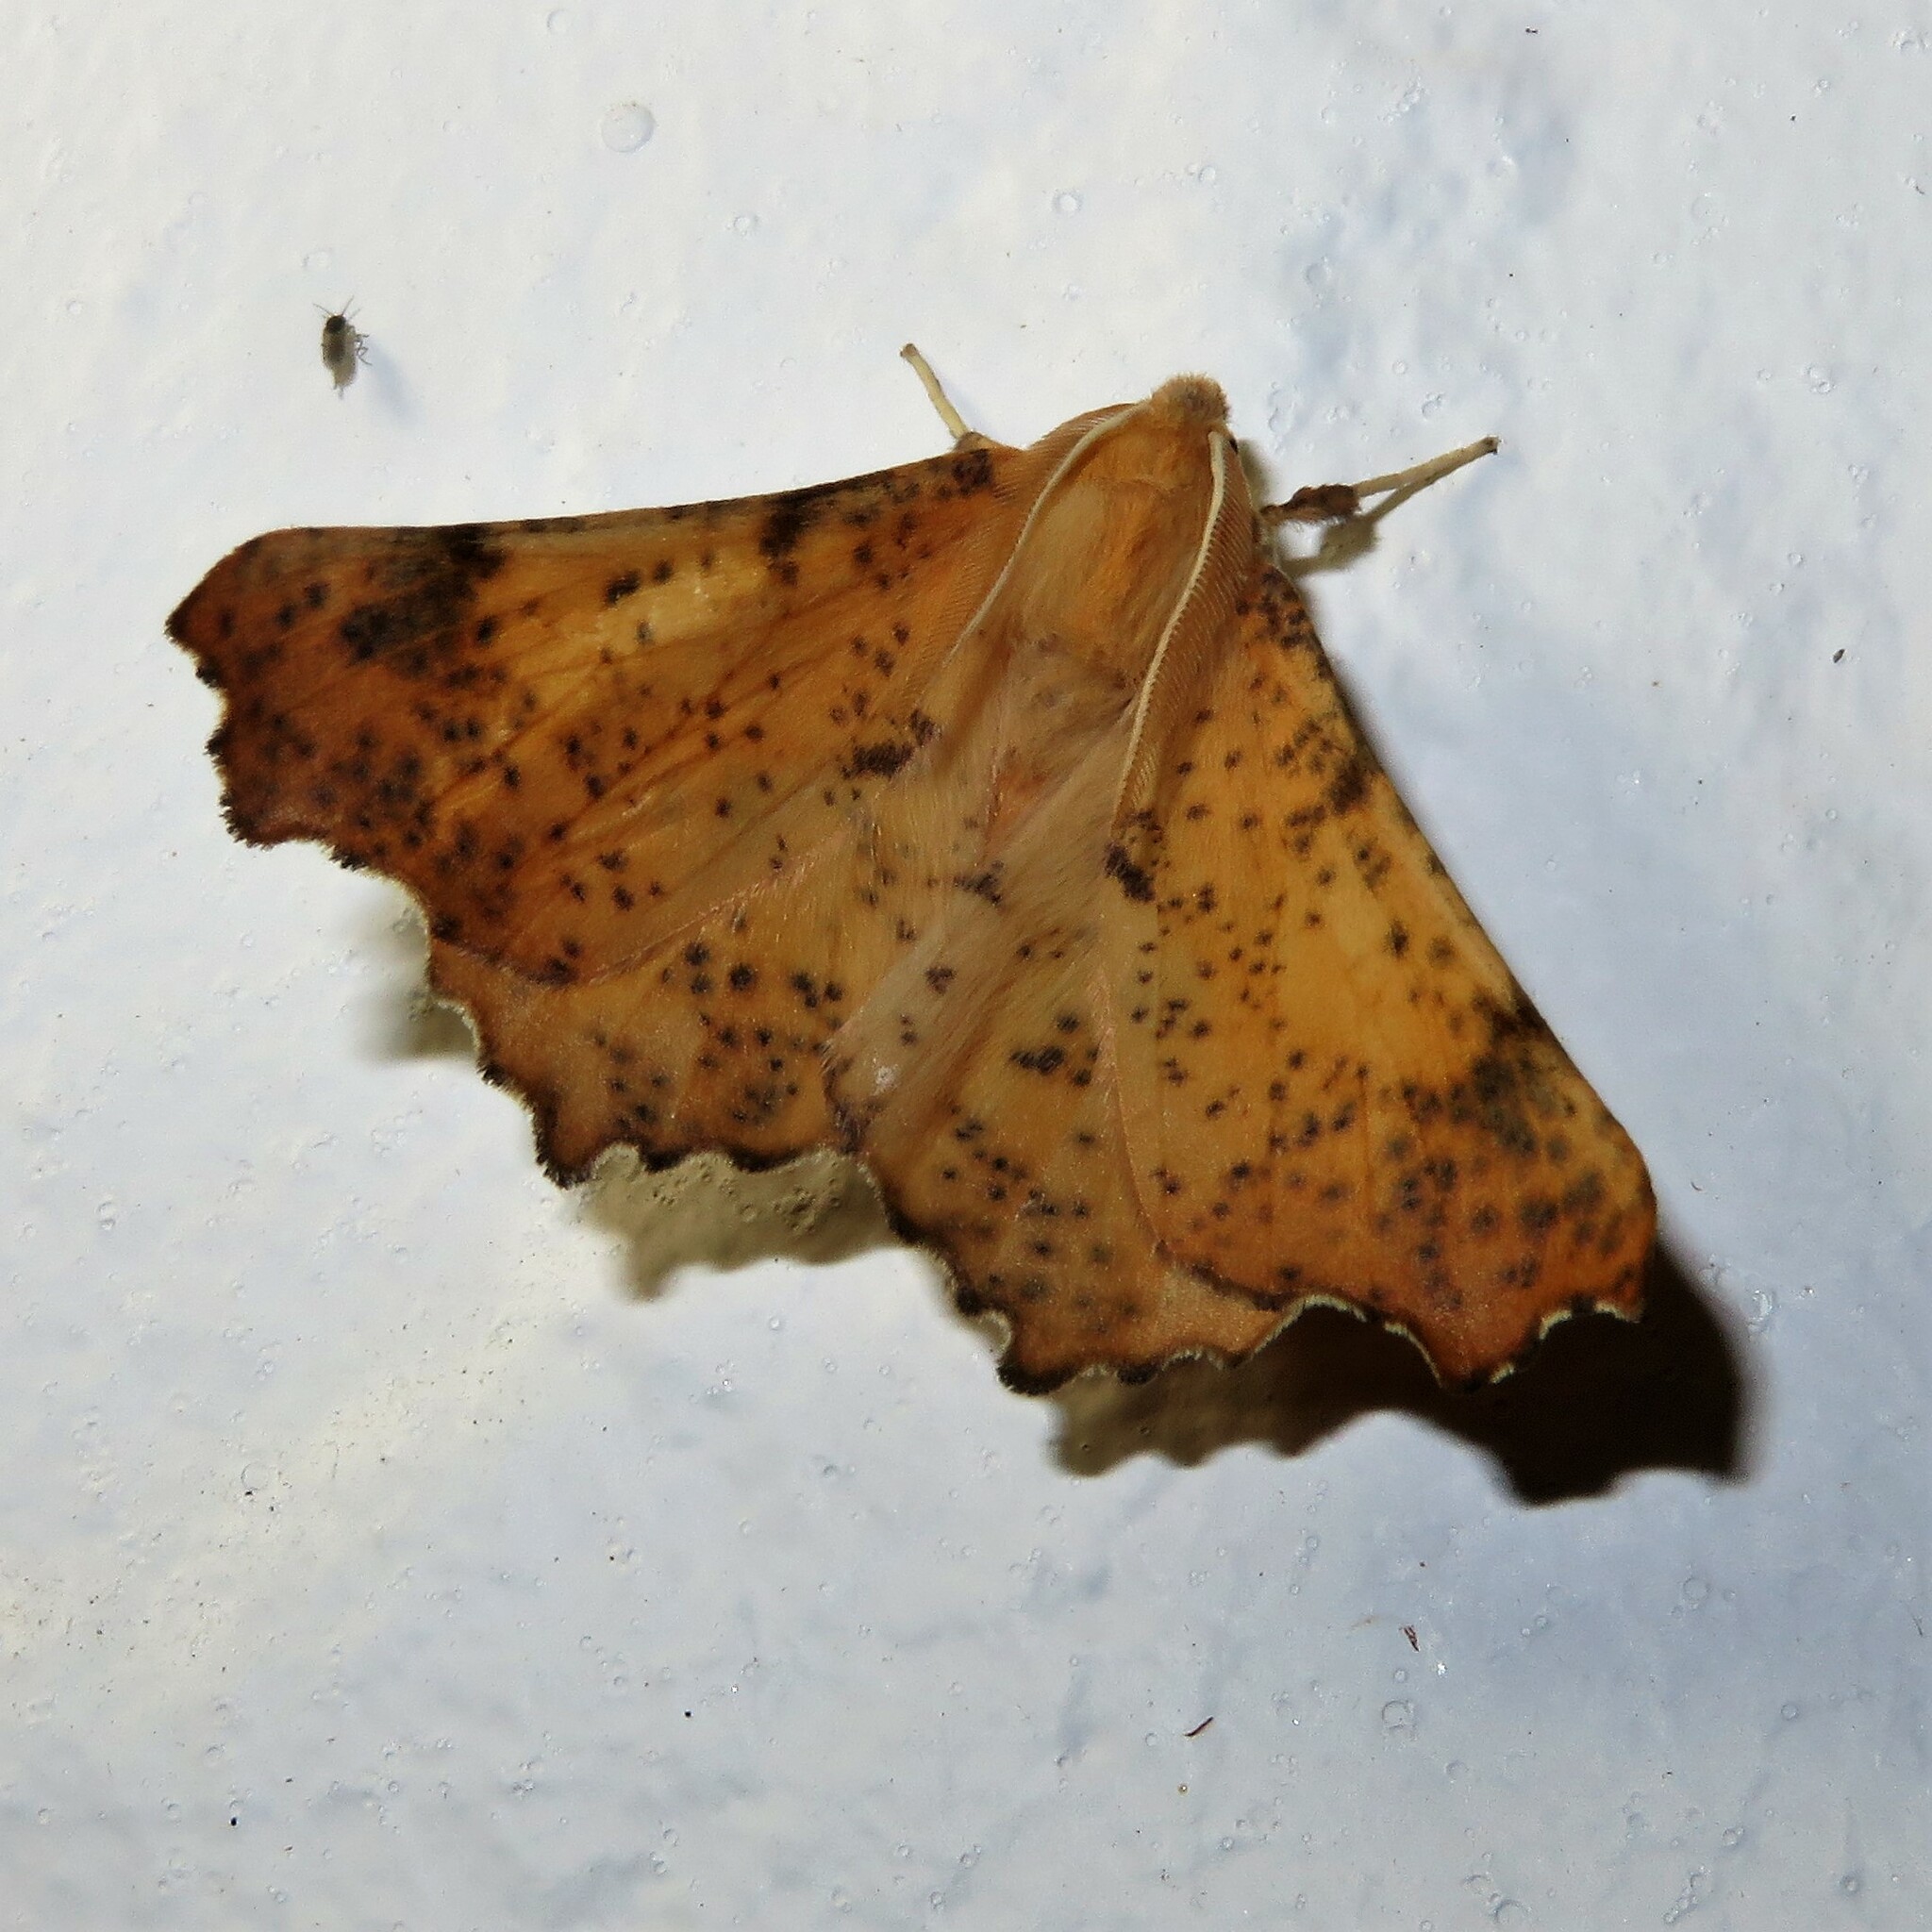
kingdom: Animalia
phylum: Arthropoda
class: Insecta
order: Lepidoptera
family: Geometridae
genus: Ennomos
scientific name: Ennomos magnaria
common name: Maple spanworm
